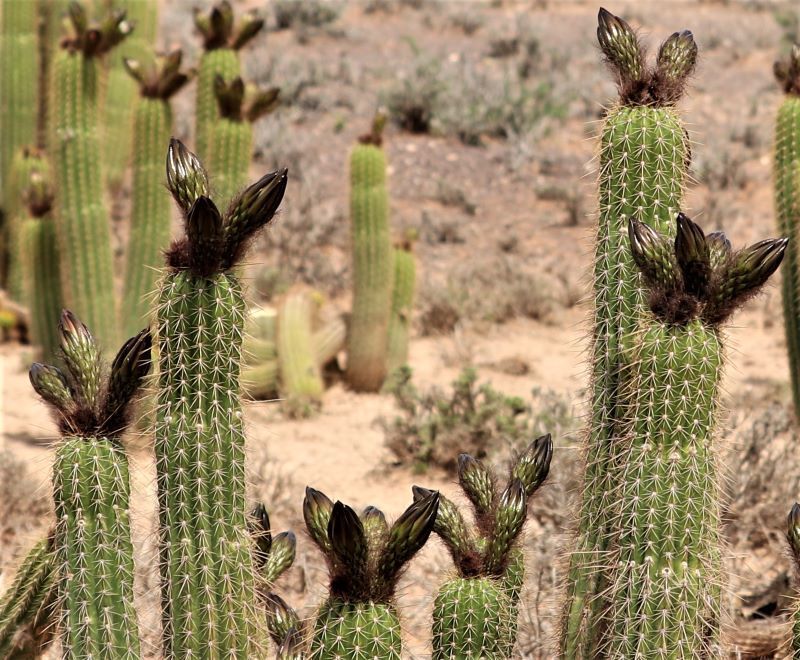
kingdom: Plantae
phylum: Tracheophyta
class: Magnoliopsida
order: Caryophyllales
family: Cactaceae
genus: Soehrensia
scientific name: Soehrensia spachiana
